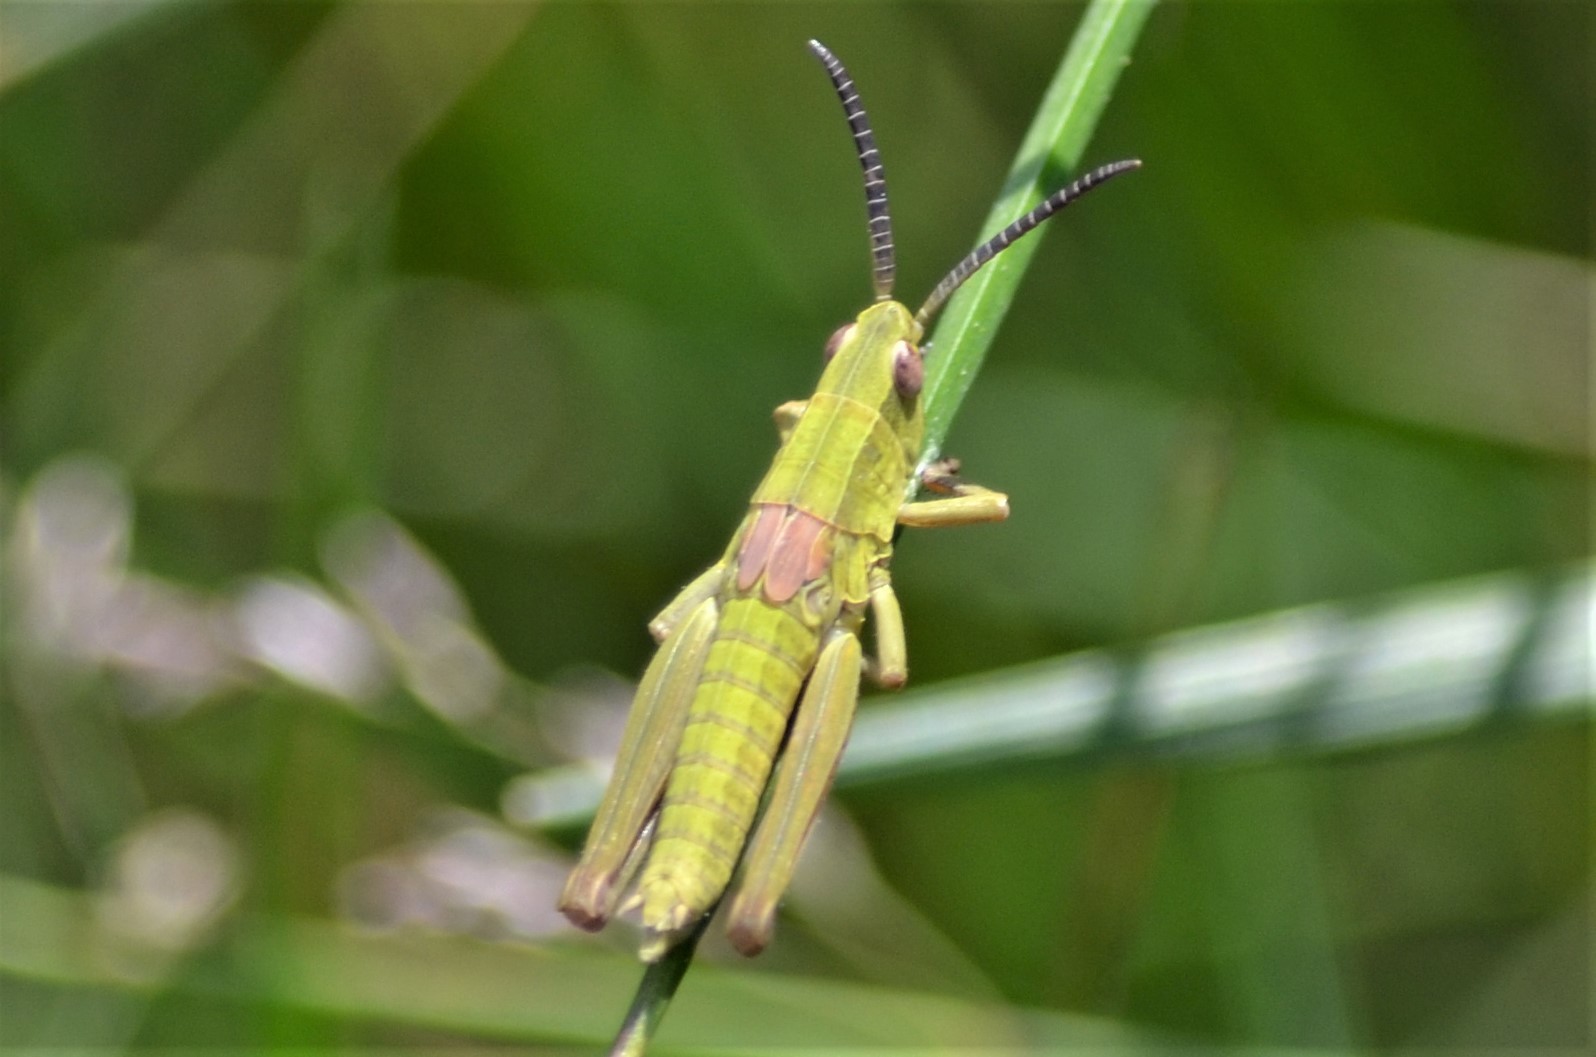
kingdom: Animalia
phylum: Arthropoda
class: Insecta
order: Orthoptera
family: Acrididae
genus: Euthystira
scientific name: Euthystira brachyptera
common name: Small gold grasshopper
